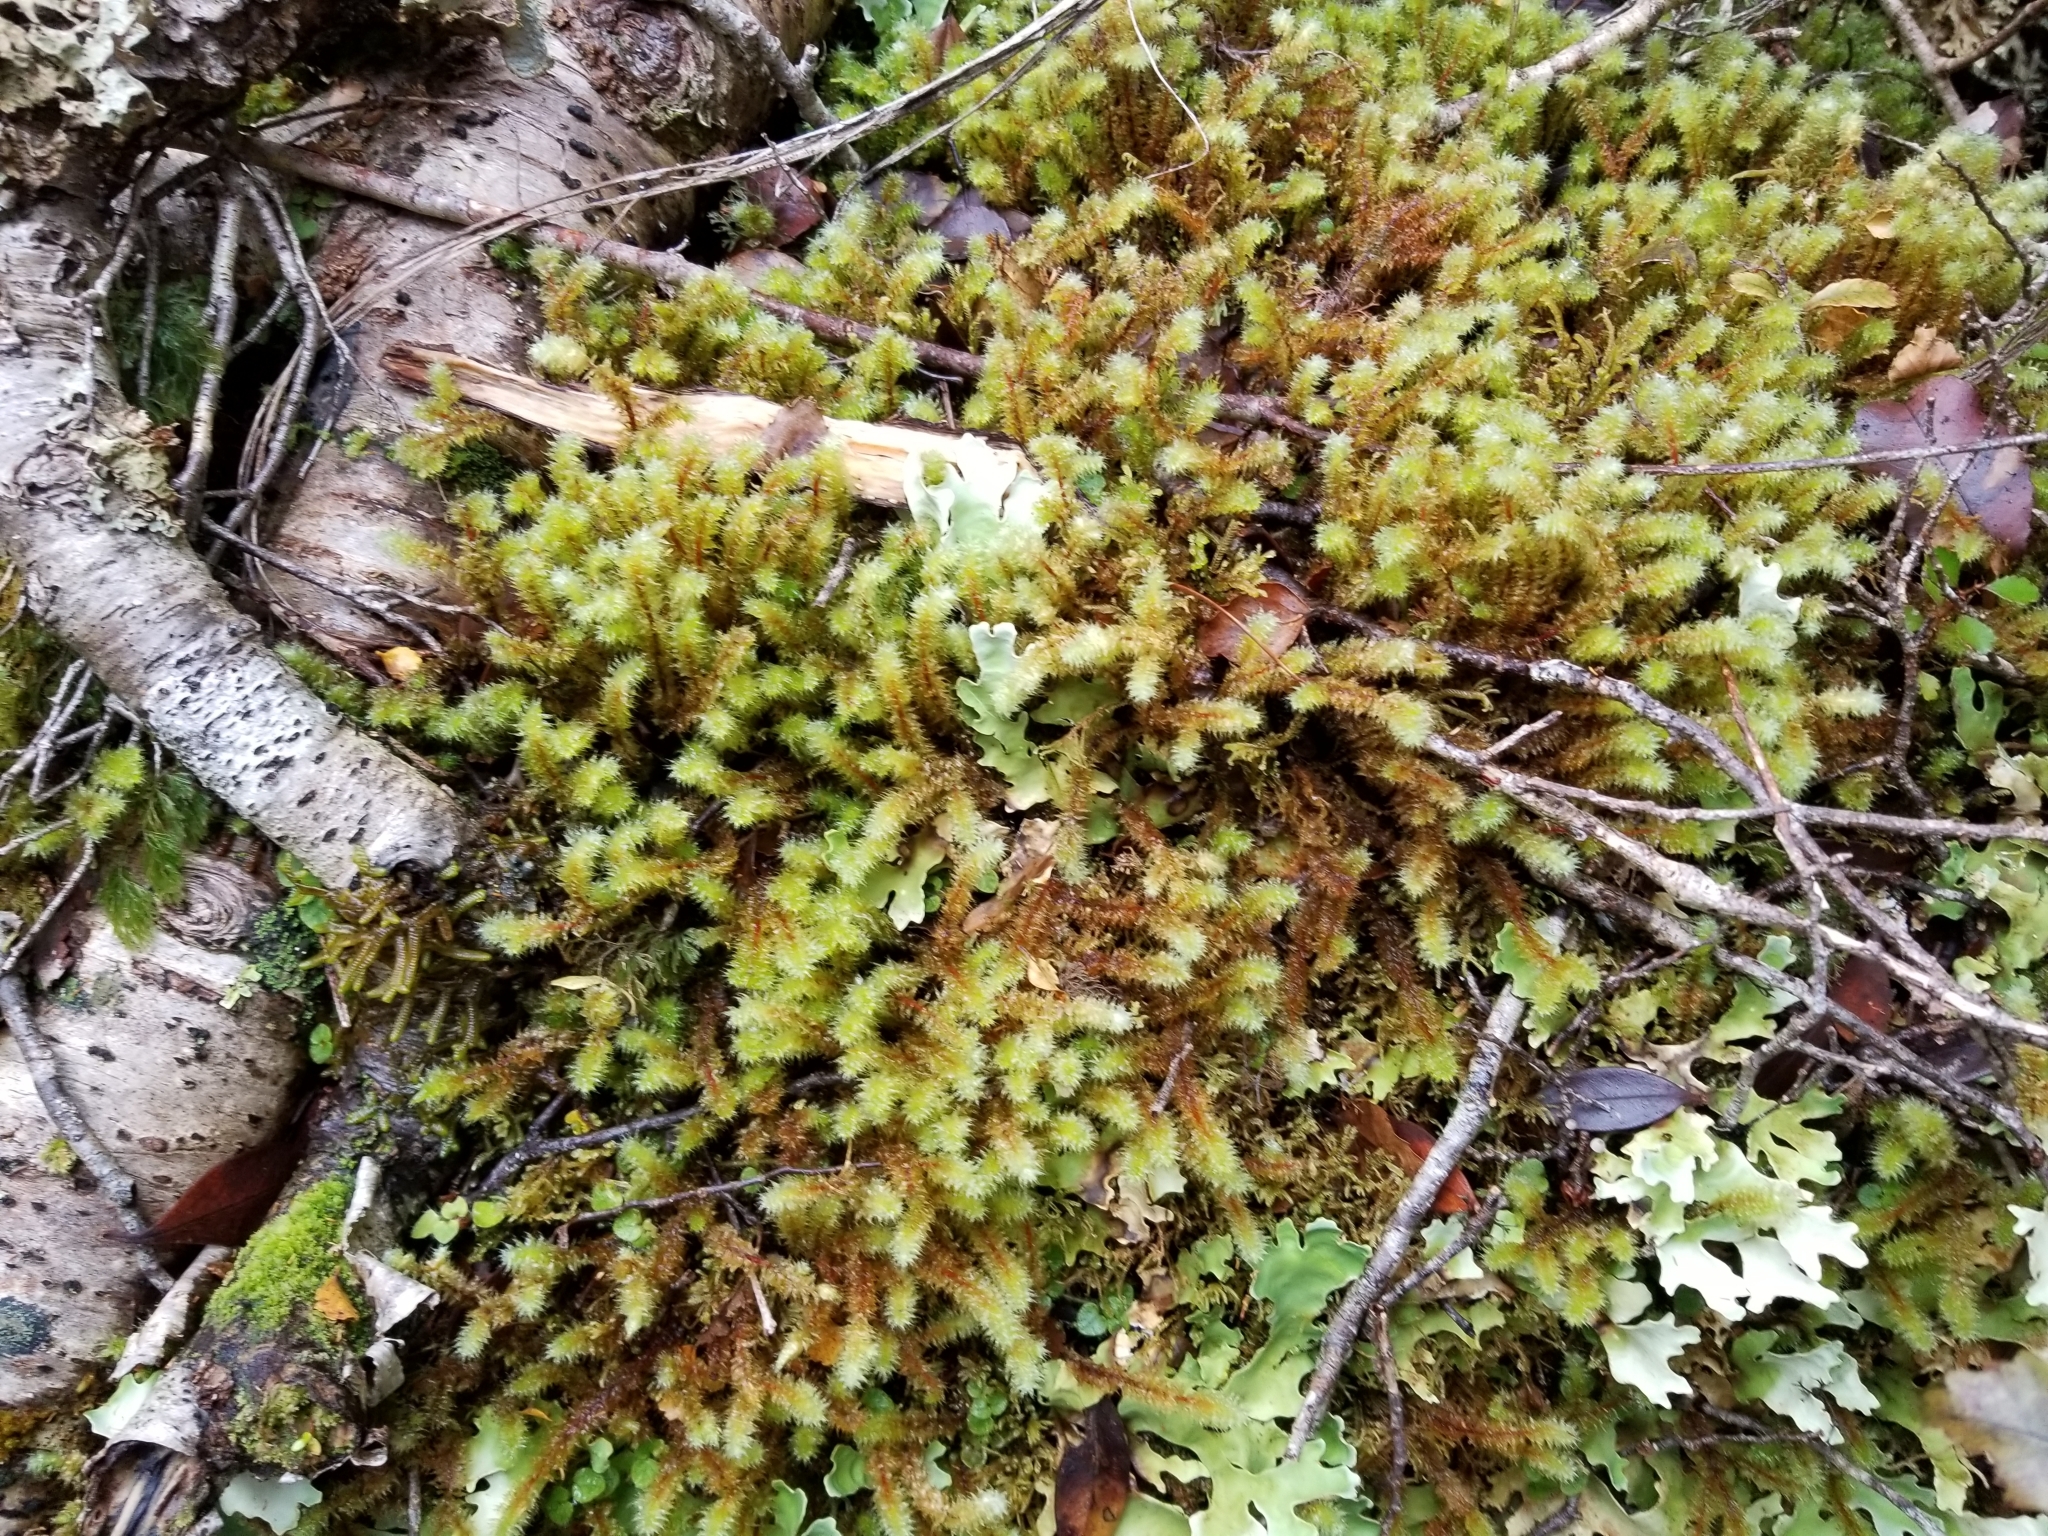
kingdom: Plantae
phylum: Bryophyta
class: Bryopsida
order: Ptychomniales
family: Ptychomniaceae
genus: Ptychomnion
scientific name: Ptychomnion aciculare
